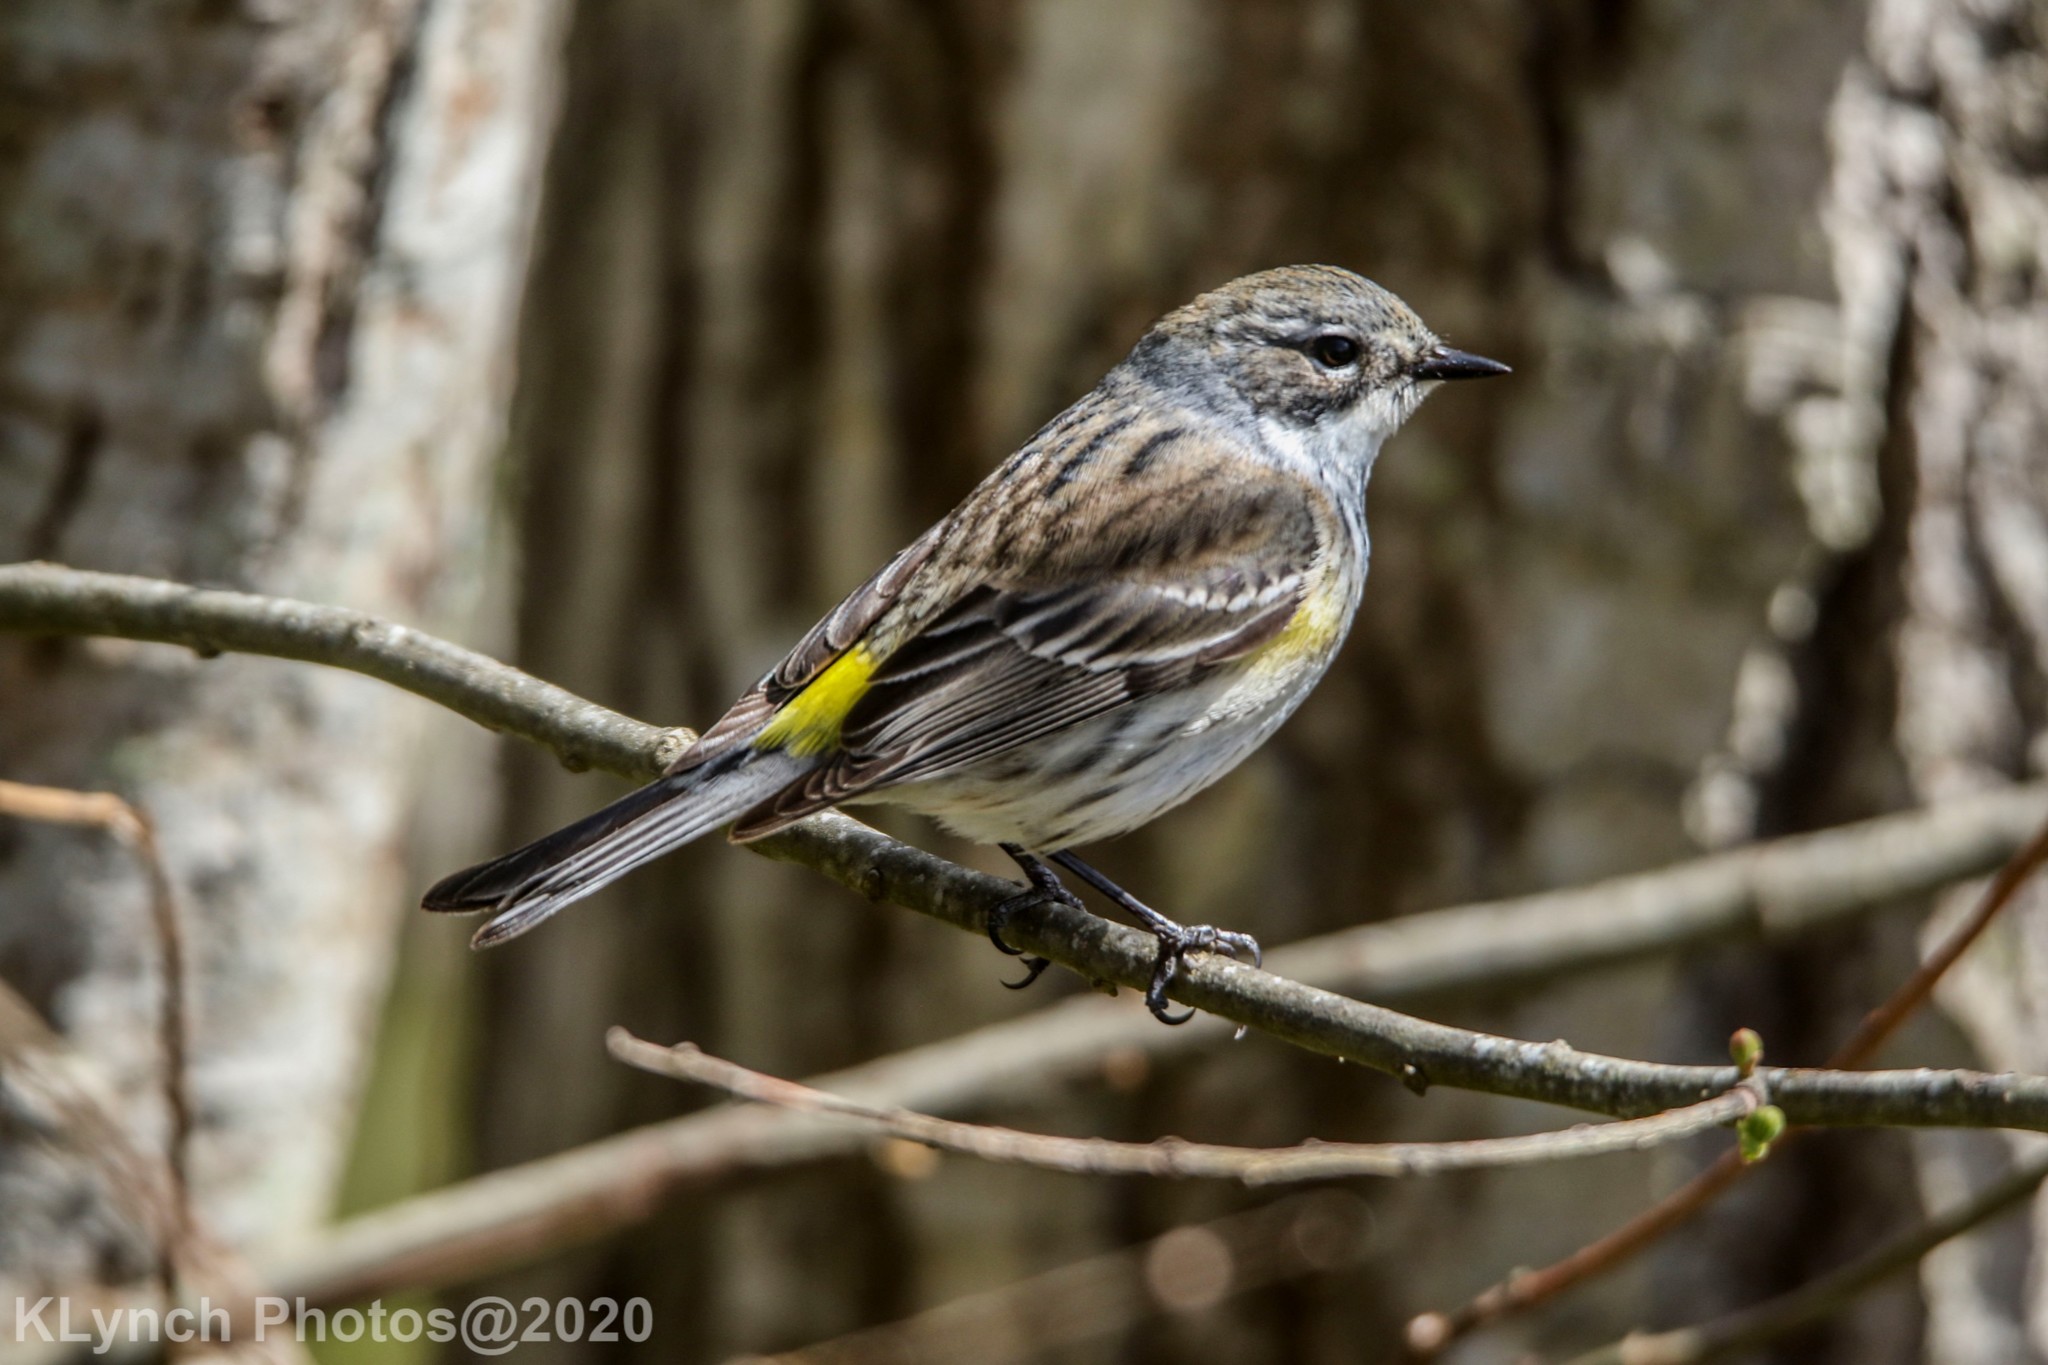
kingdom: Animalia
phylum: Chordata
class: Aves
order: Passeriformes
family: Parulidae
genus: Setophaga
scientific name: Setophaga coronata
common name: Myrtle warbler
